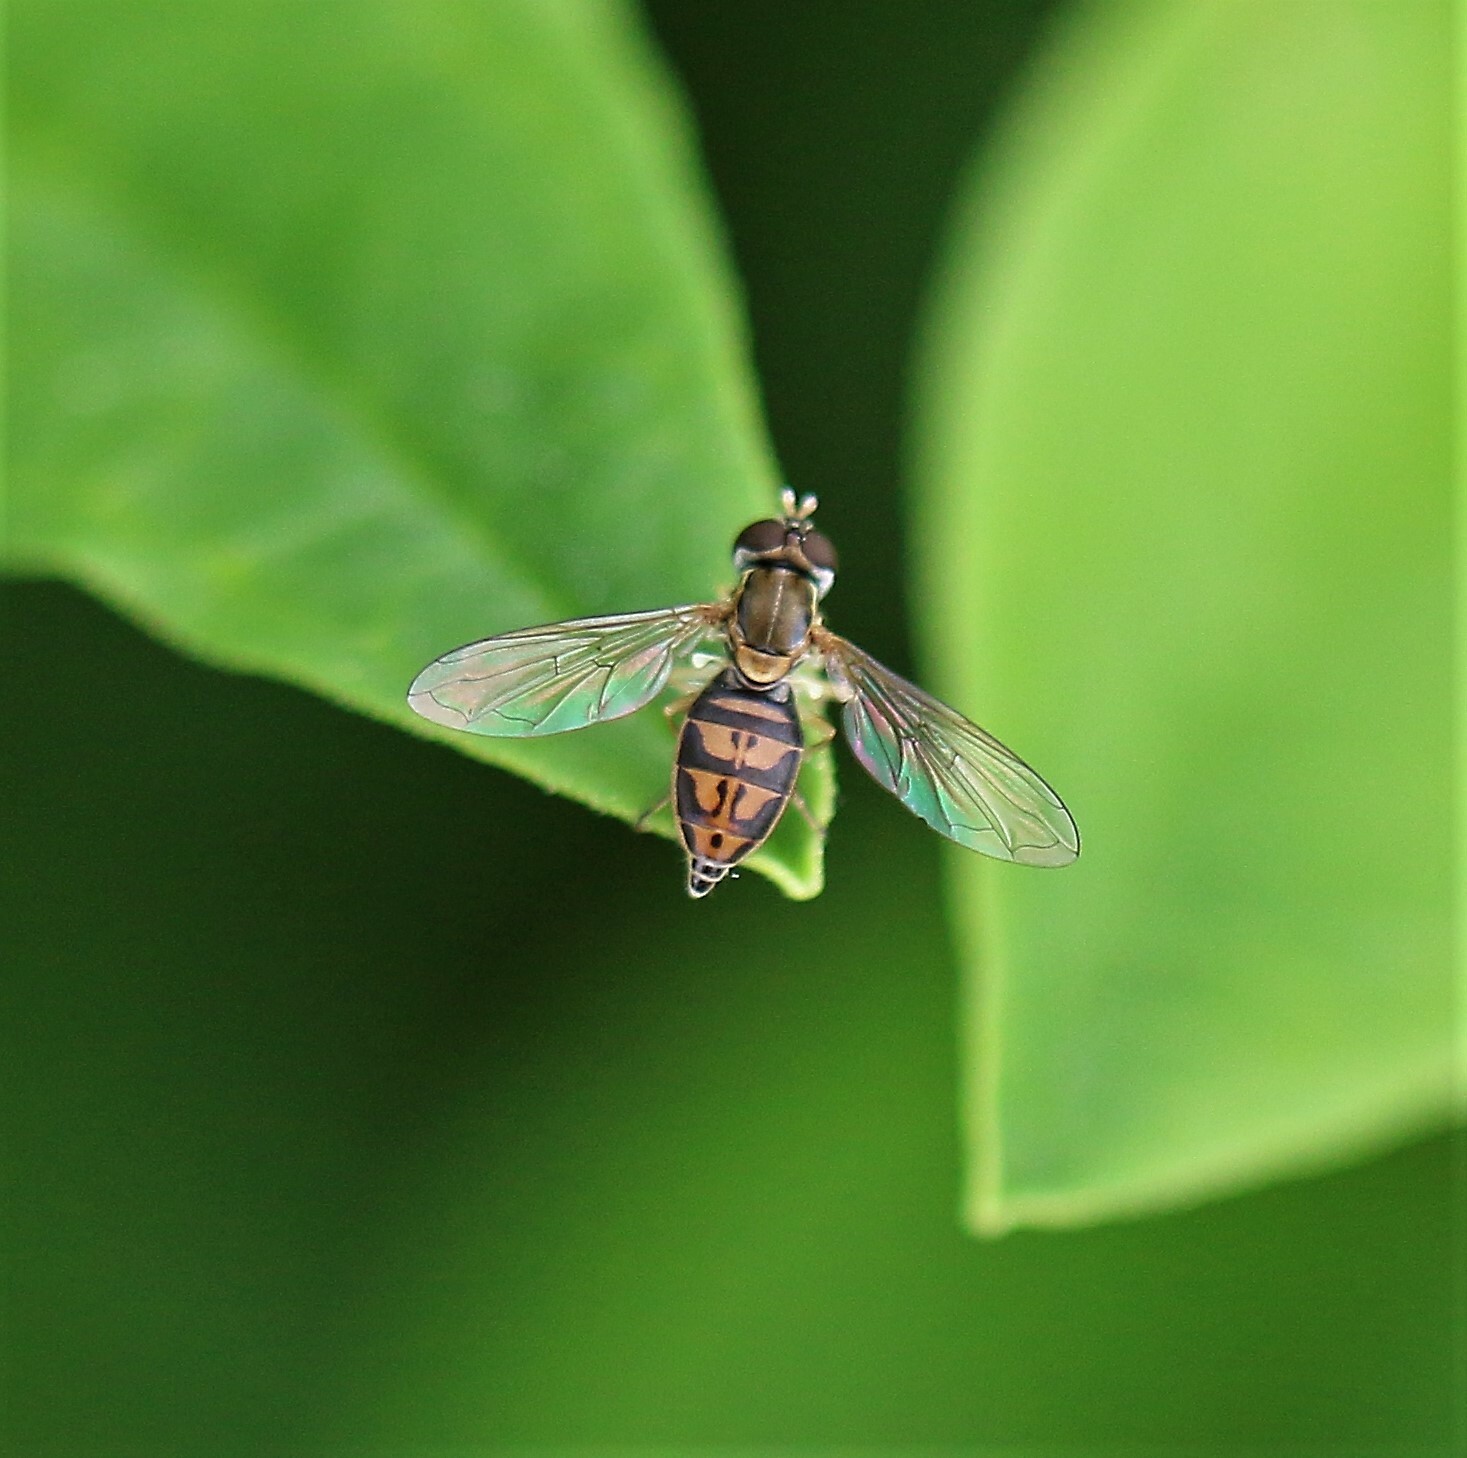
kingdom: Animalia
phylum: Arthropoda
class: Insecta
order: Diptera
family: Syrphidae
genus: Toxomerus
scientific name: Toxomerus marginatus
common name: Syrphid fly
